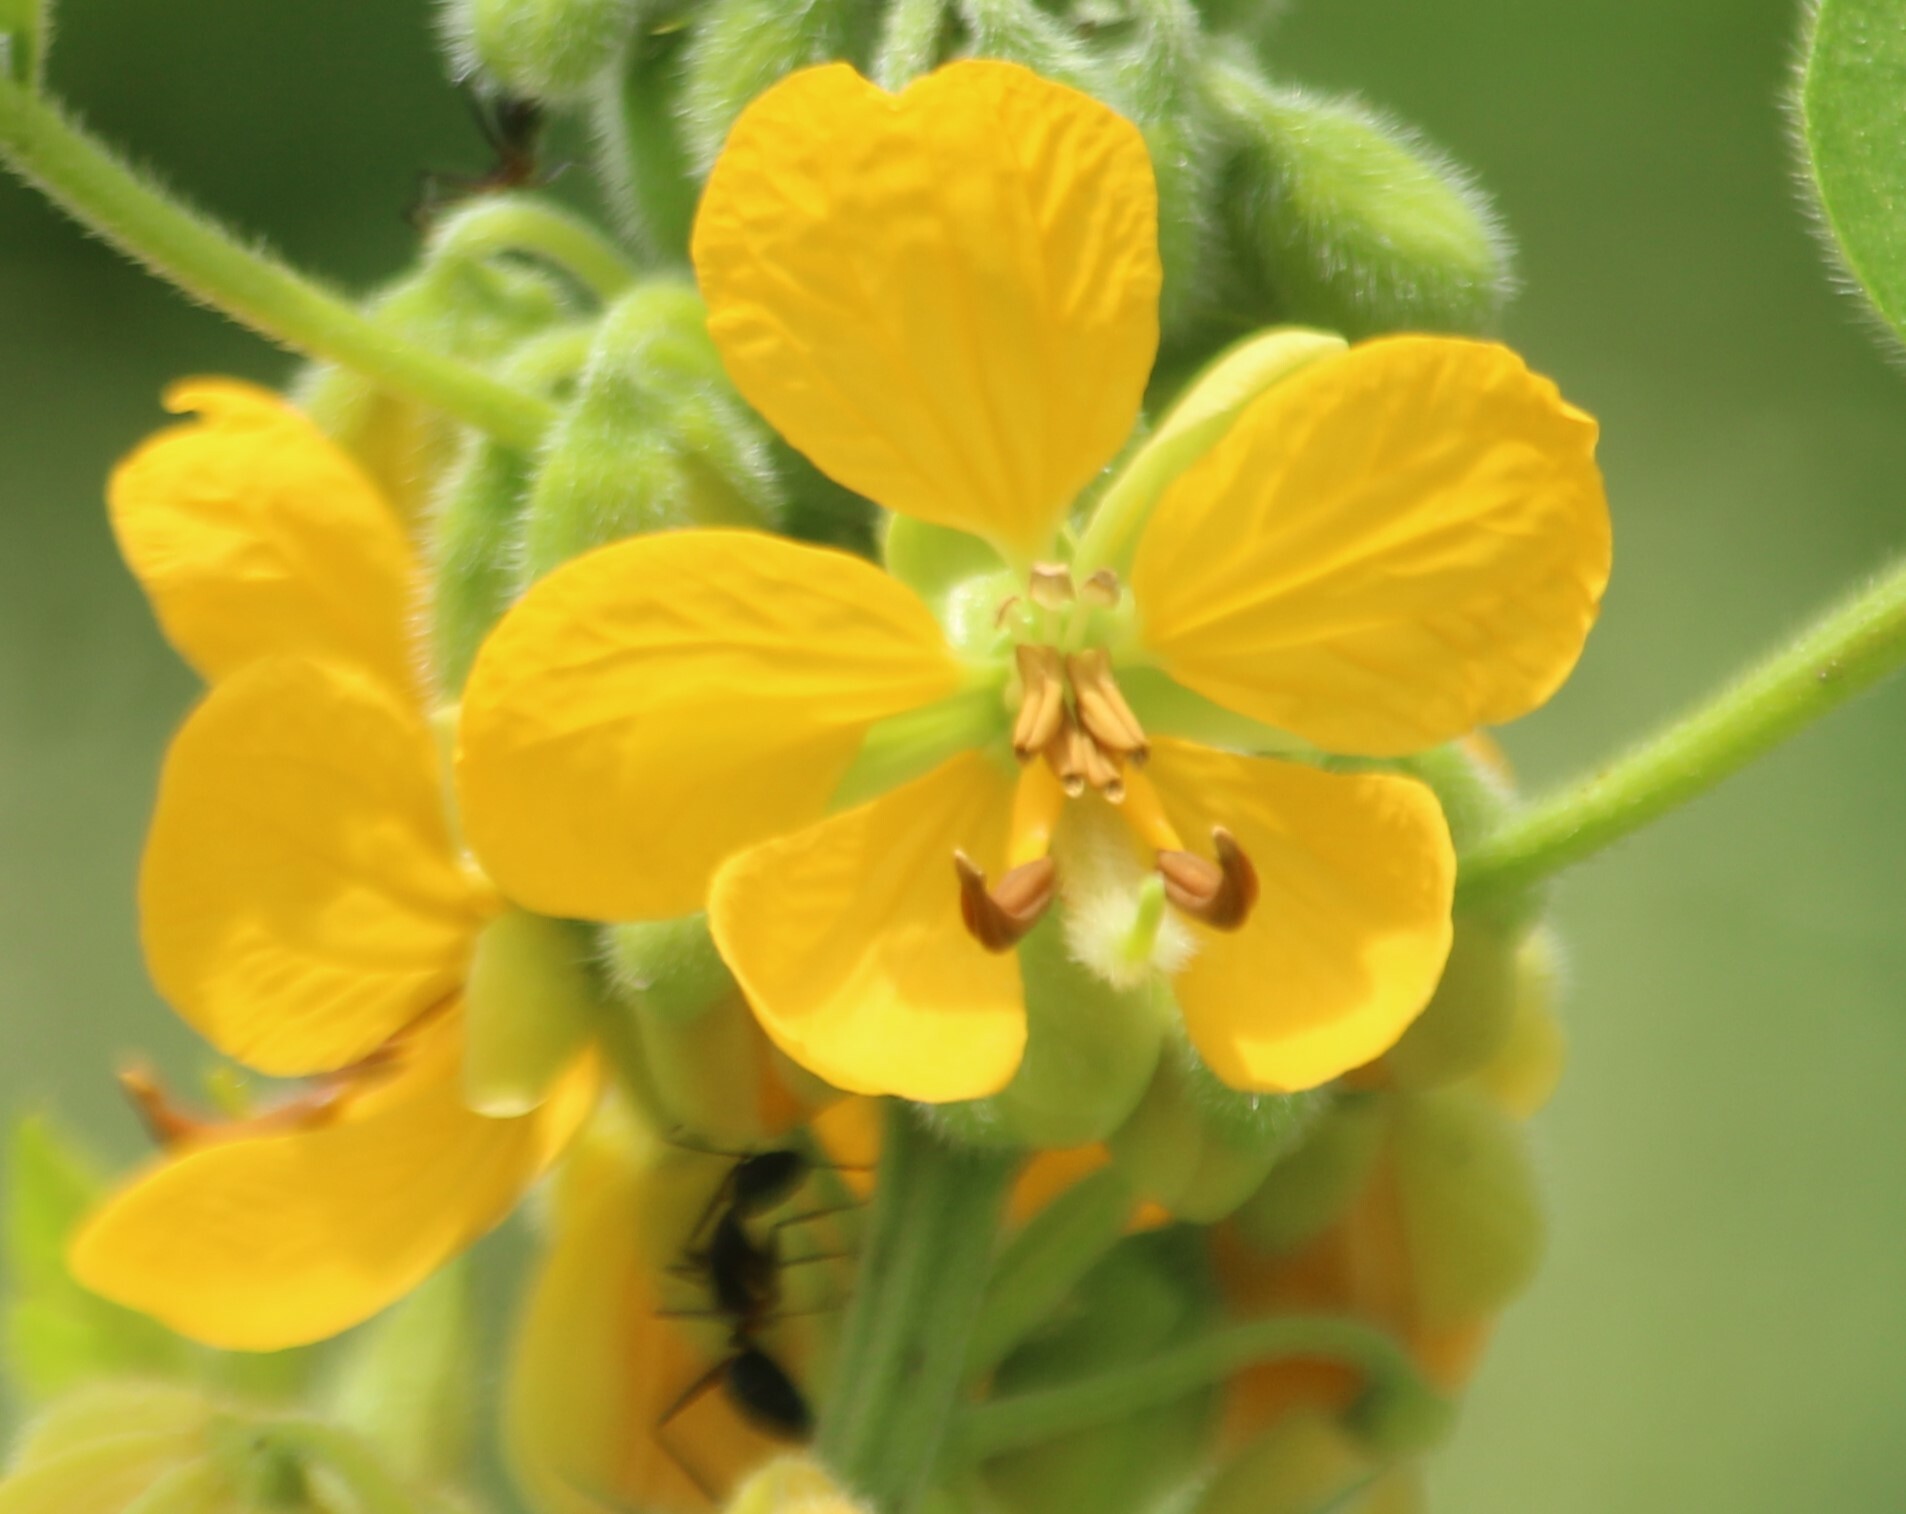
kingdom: Plantae
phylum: Tracheophyta
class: Magnoliopsida
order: Fabales
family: Fabaceae
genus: Senna
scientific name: Senna hirsuta
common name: Woolly senna
